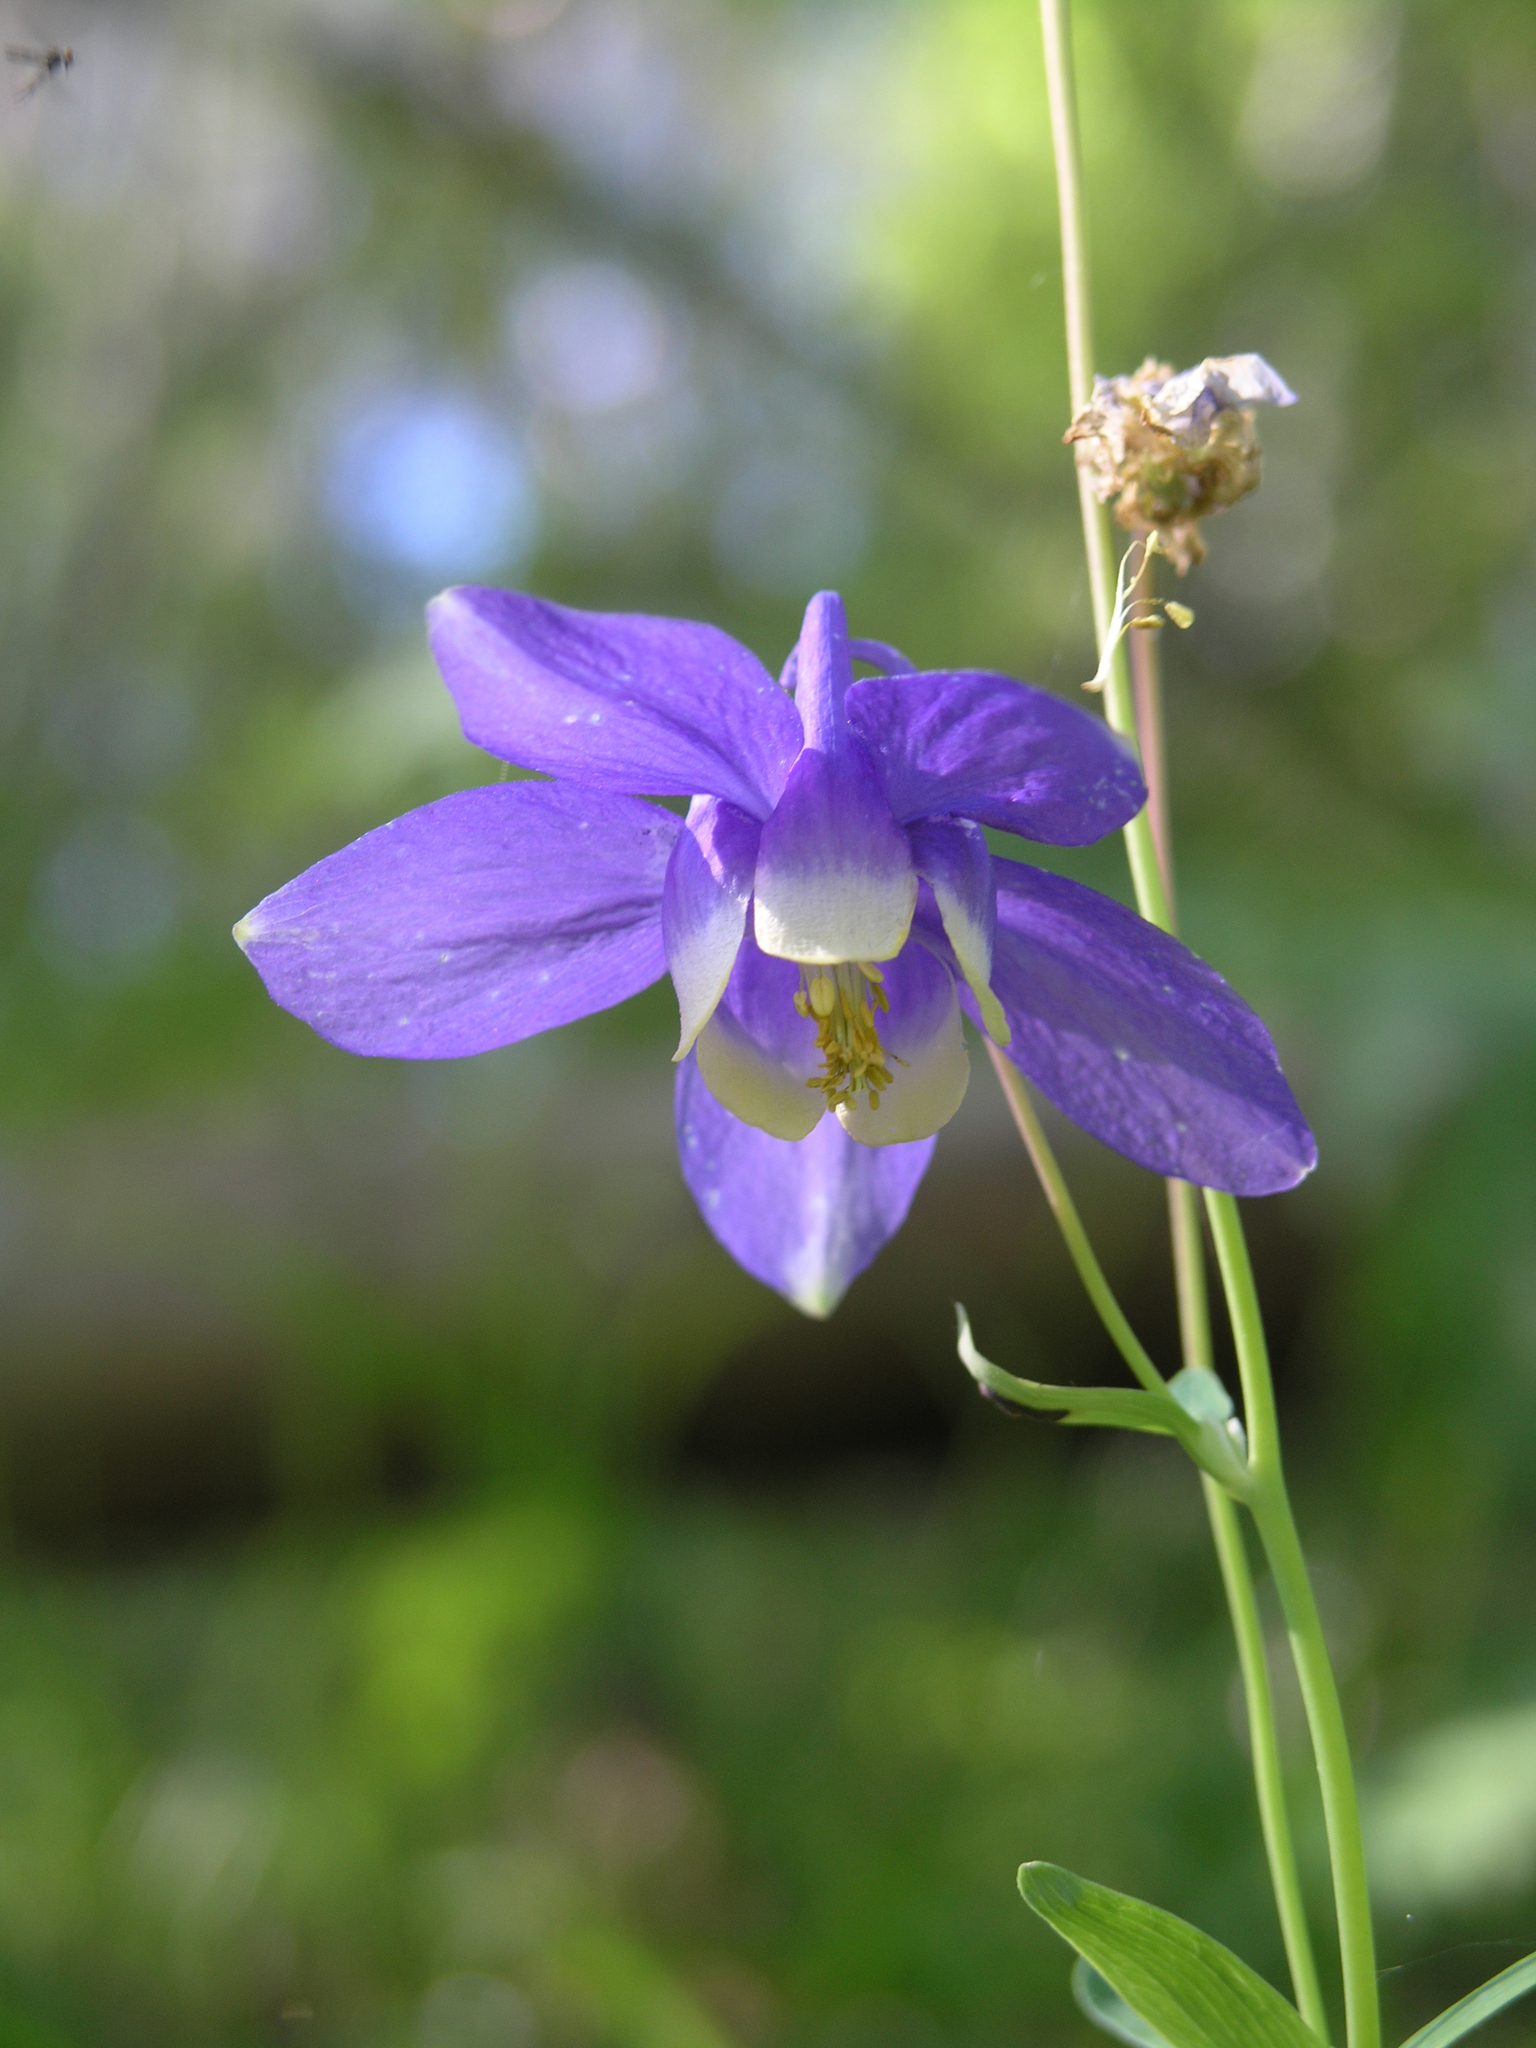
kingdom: Plantae
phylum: Tracheophyta
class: Magnoliopsida
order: Ranunculales
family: Ranunculaceae
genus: Aquilegia
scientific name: Aquilegia sibirica
